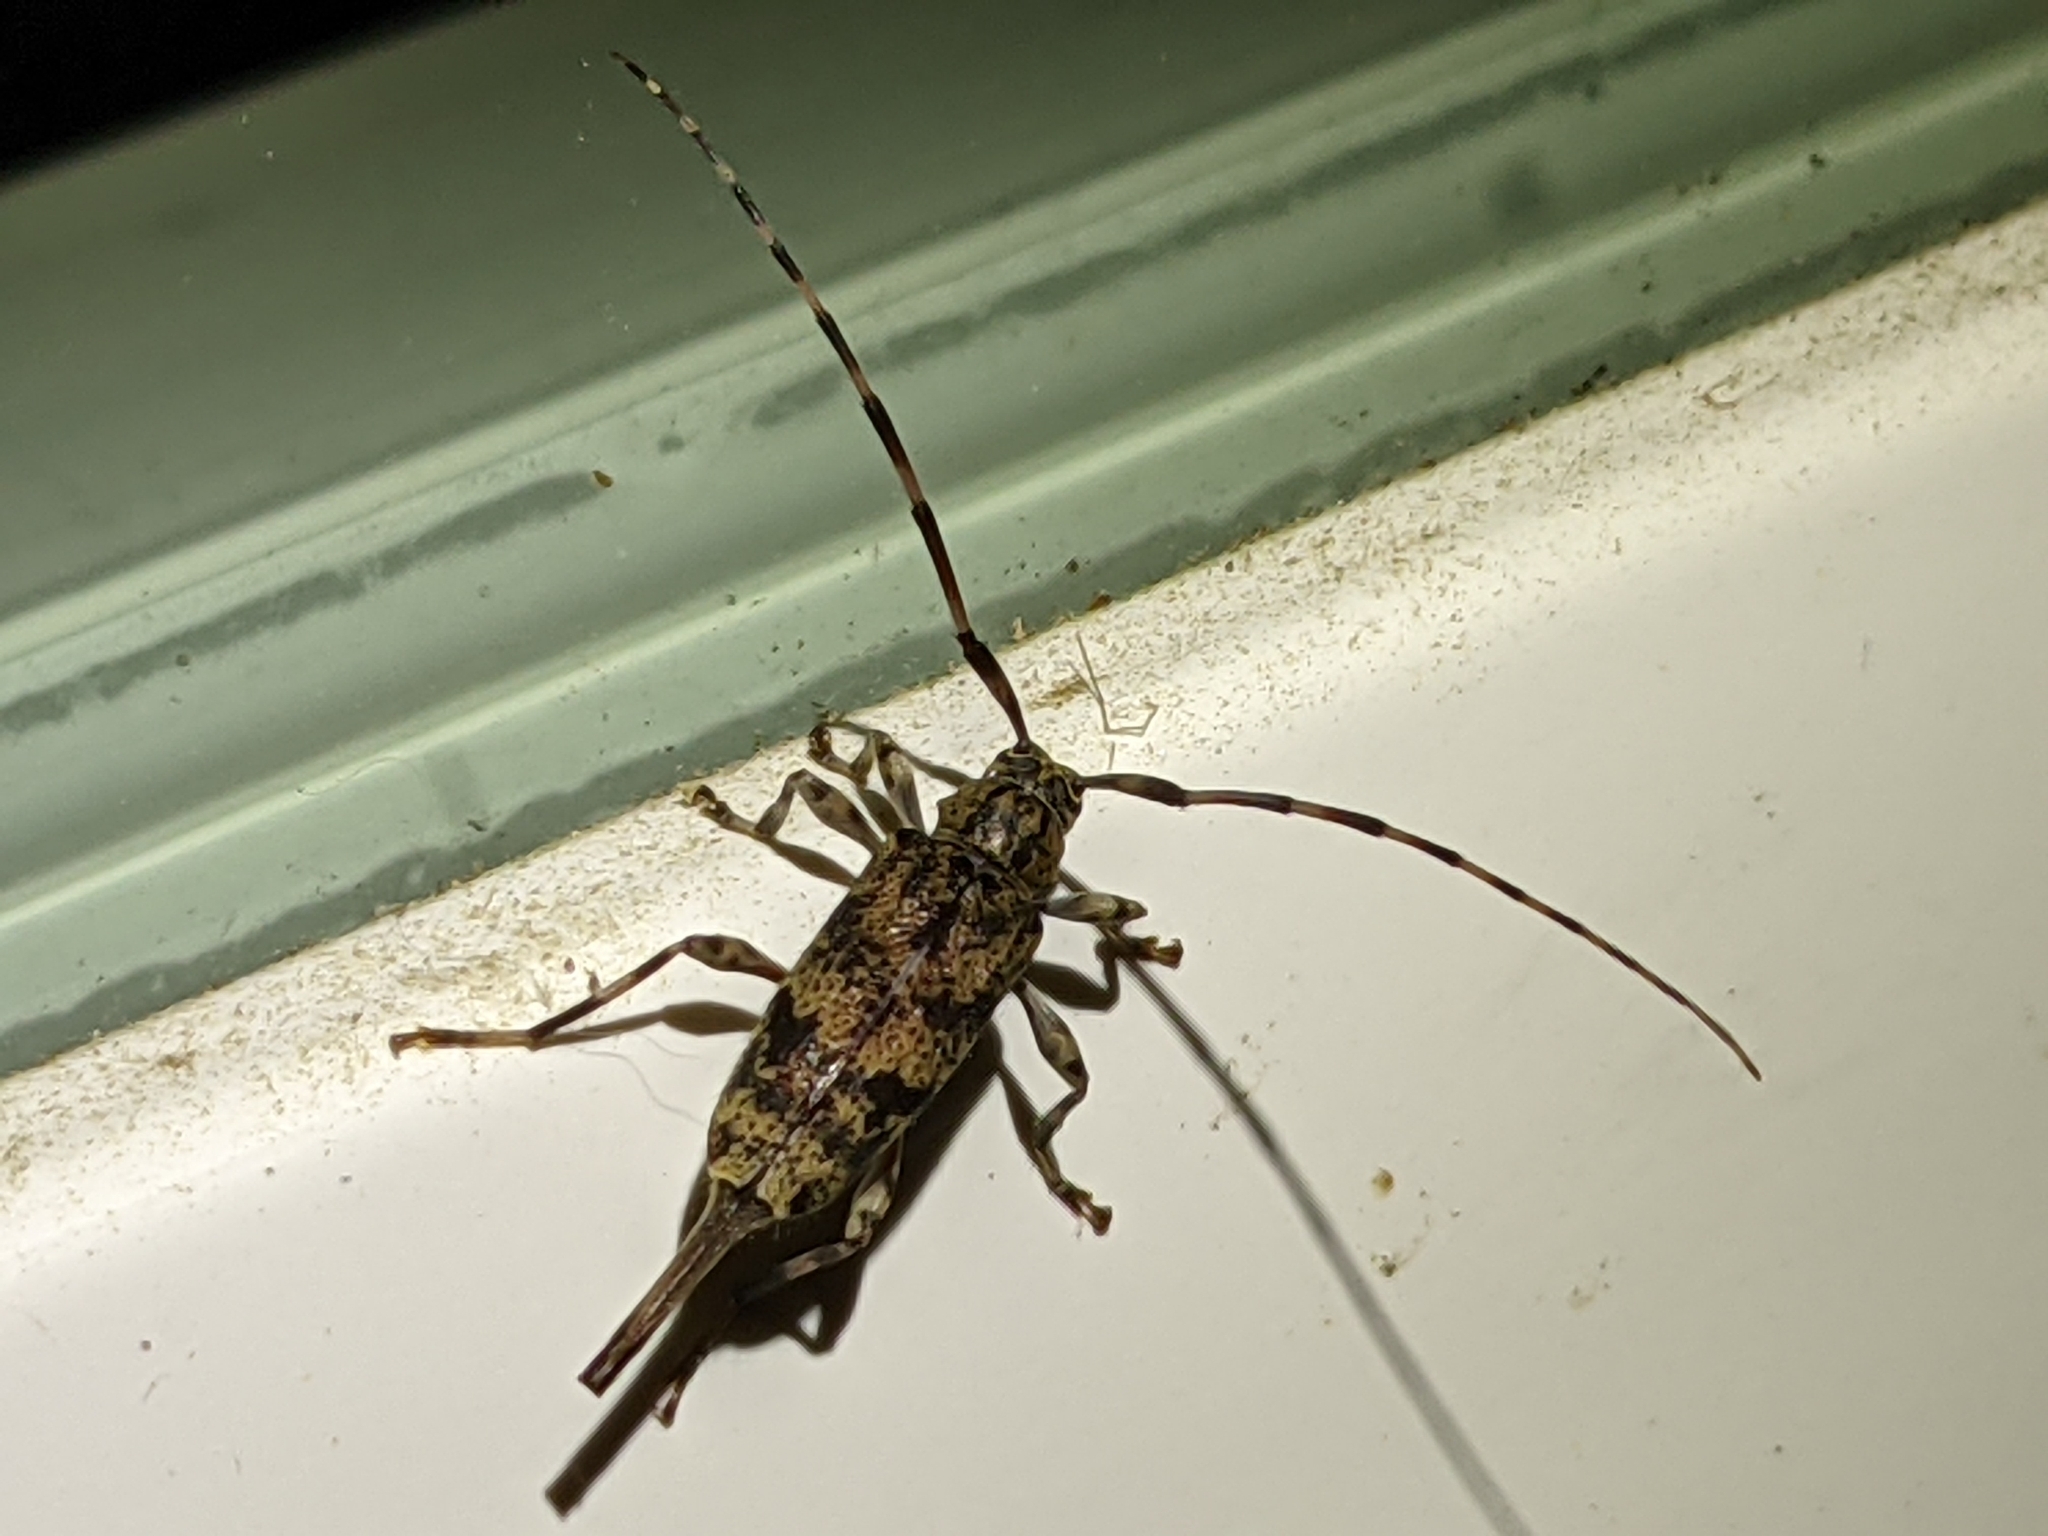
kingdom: Animalia
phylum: Arthropoda
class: Insecta
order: Coleoptera
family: Cerambycidae
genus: Graphisurus
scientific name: Graphisurus fasciatus
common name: Banded graphisurus
